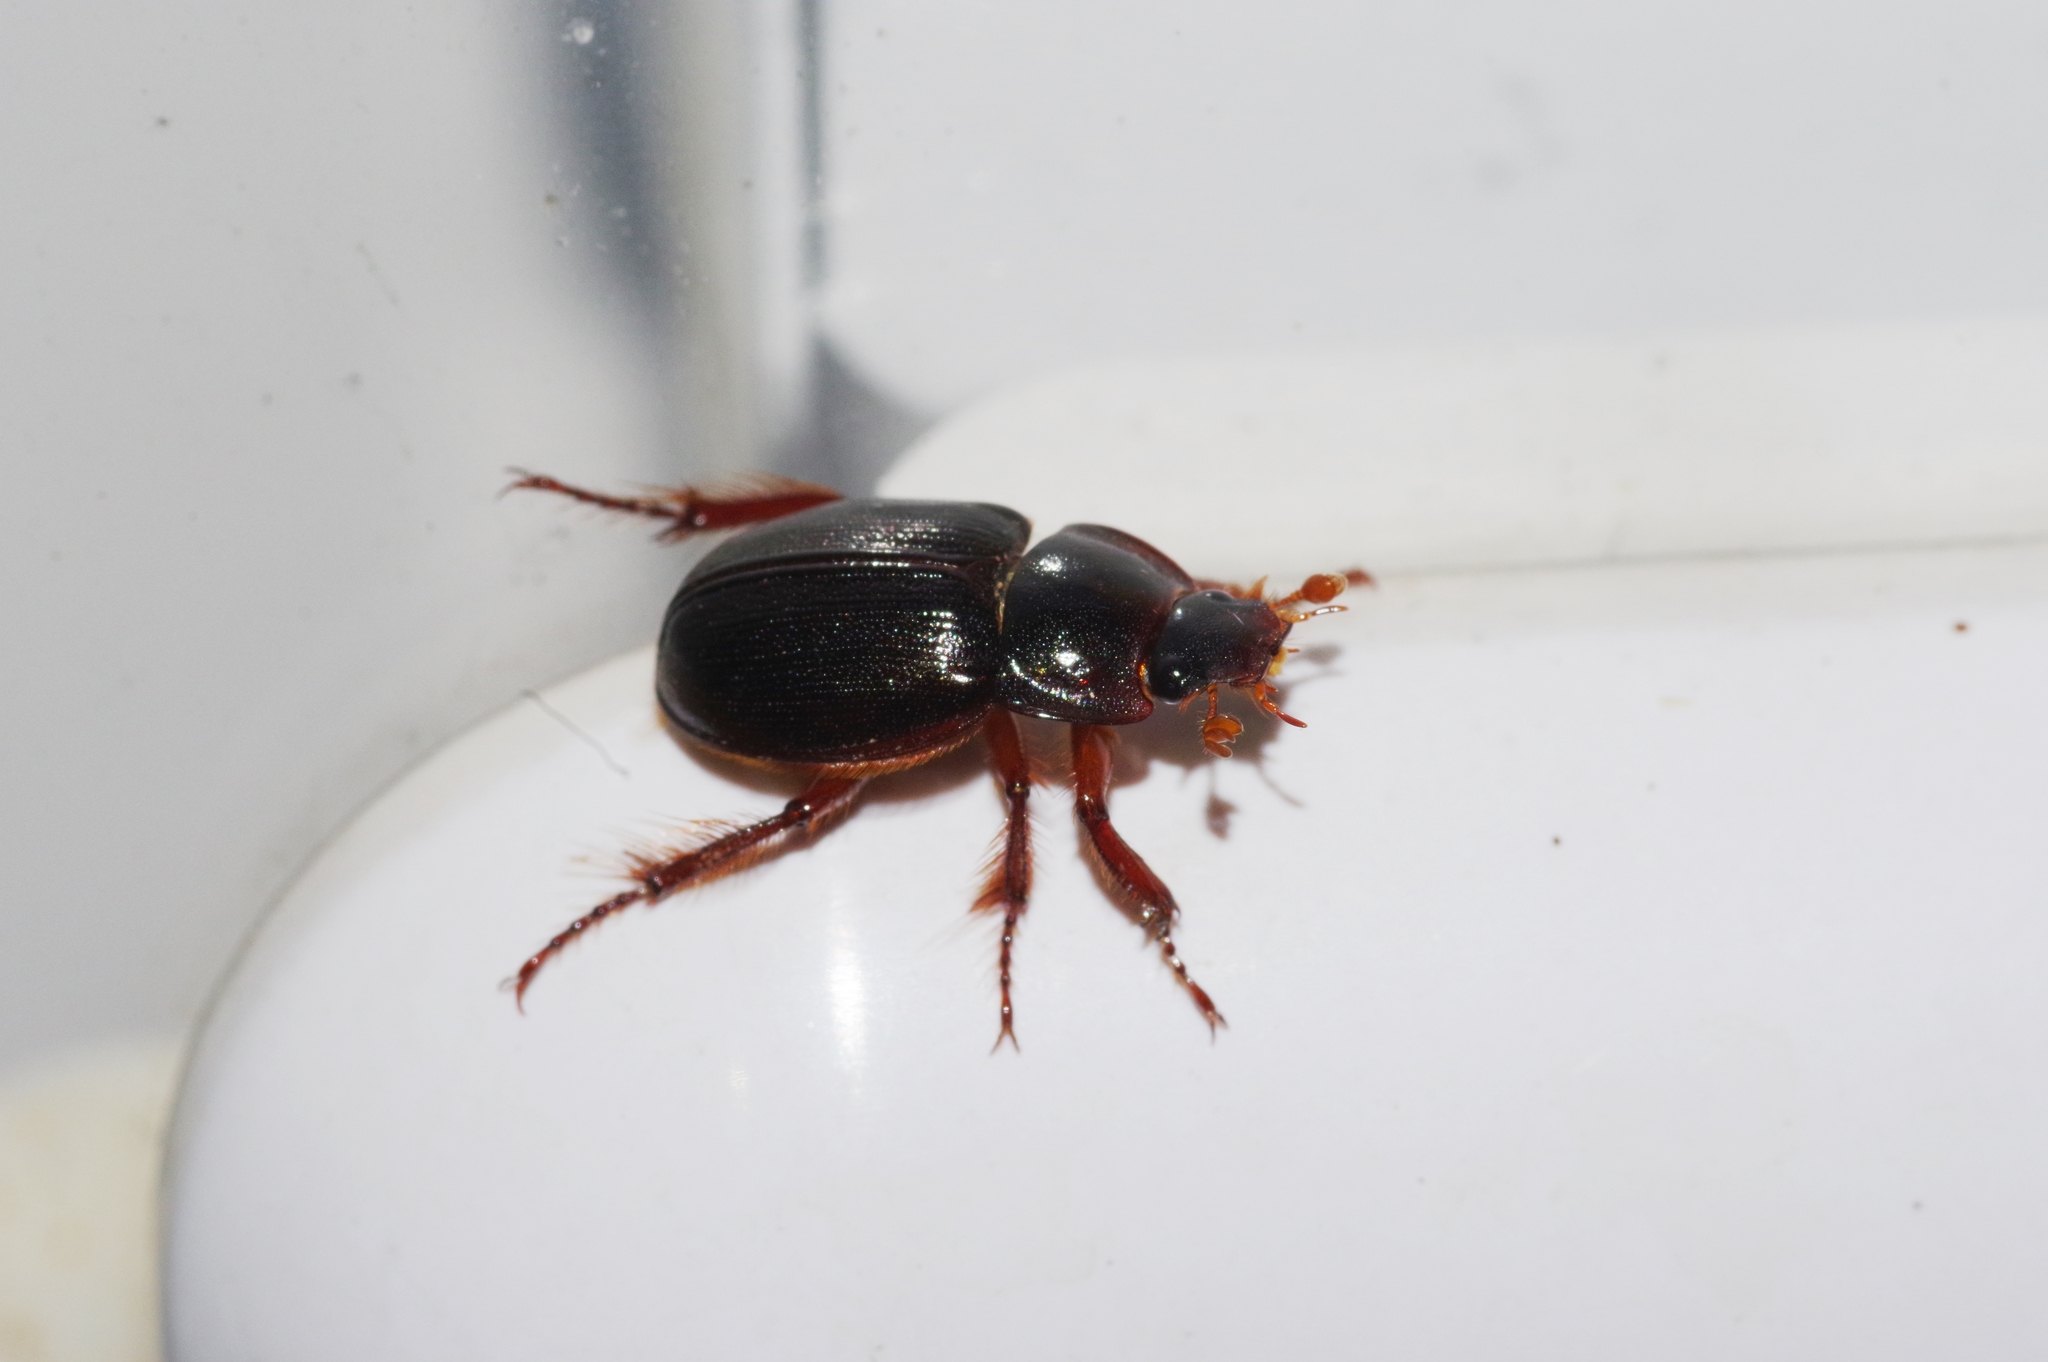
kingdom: Animalia
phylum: Arthropoda
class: Insecta
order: Coleoptera
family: Hybosoridae
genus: Phaeochrous
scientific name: Phaeochrous emarginatus
